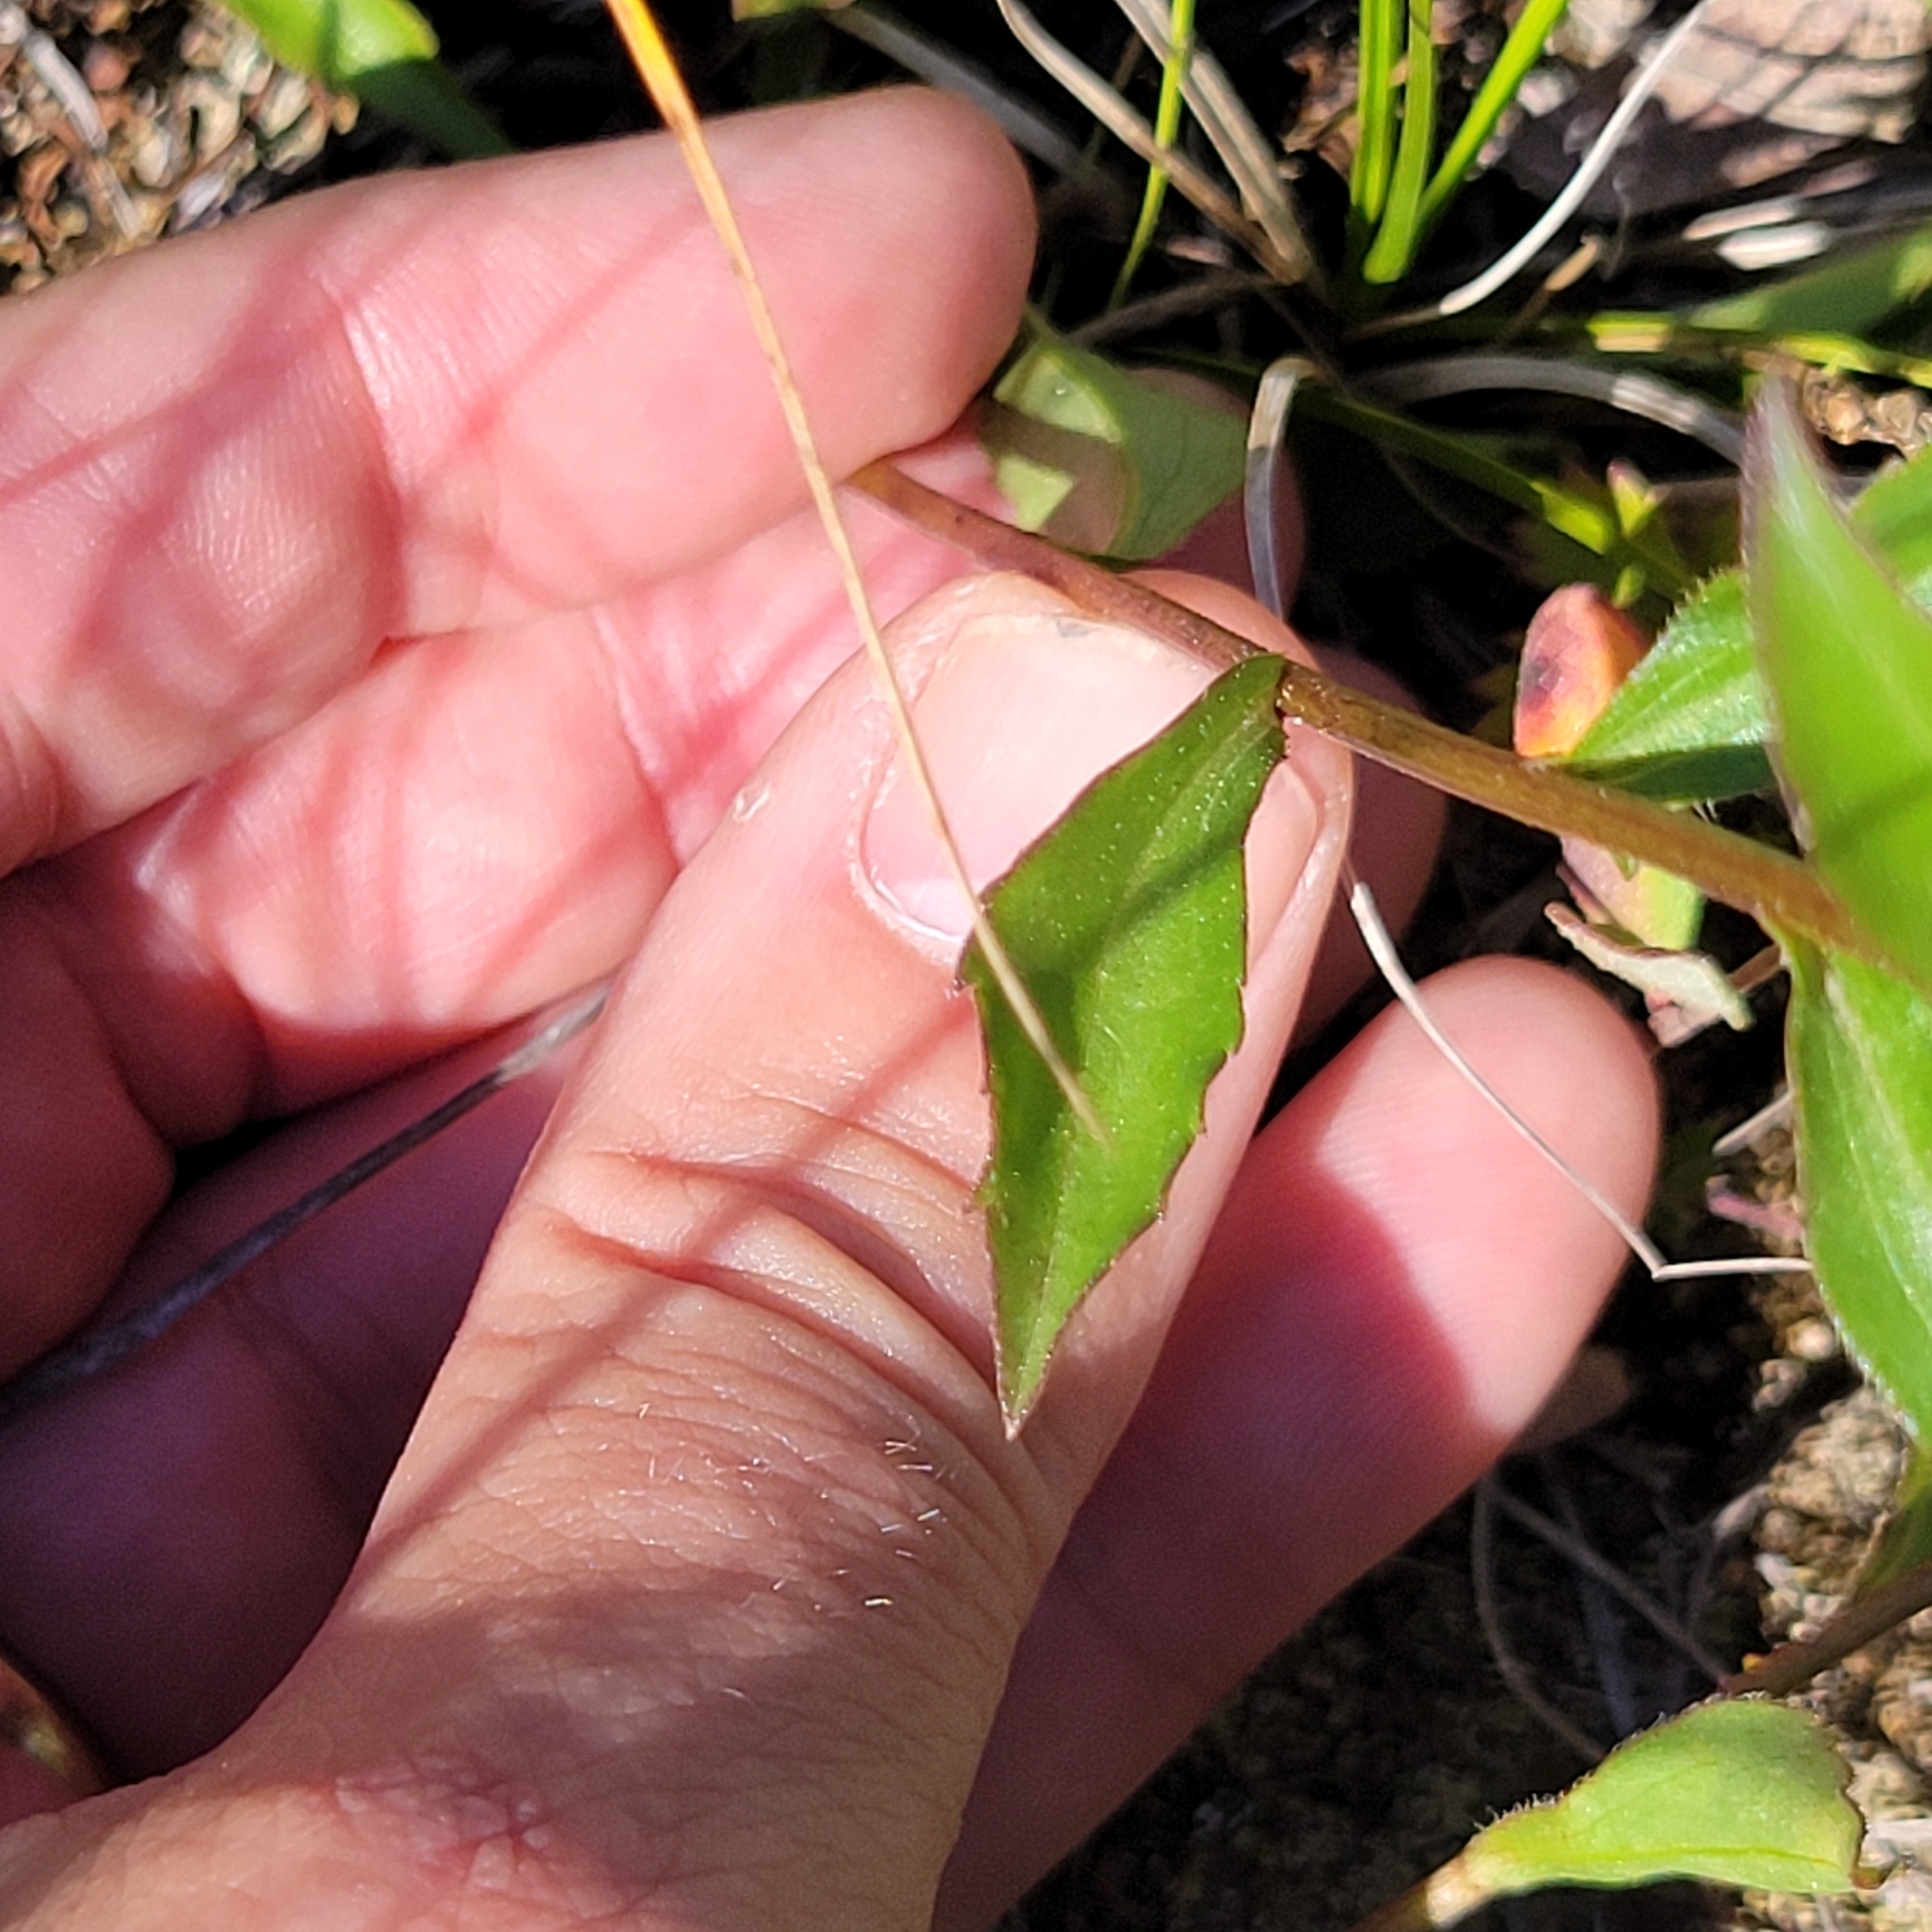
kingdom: Plantae
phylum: Tracheophyta
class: Magnoliopsida
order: Asterales
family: Asteraceae
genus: Sericocarpus
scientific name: Sericocarpus asteroides
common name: Toothed white-top aster
